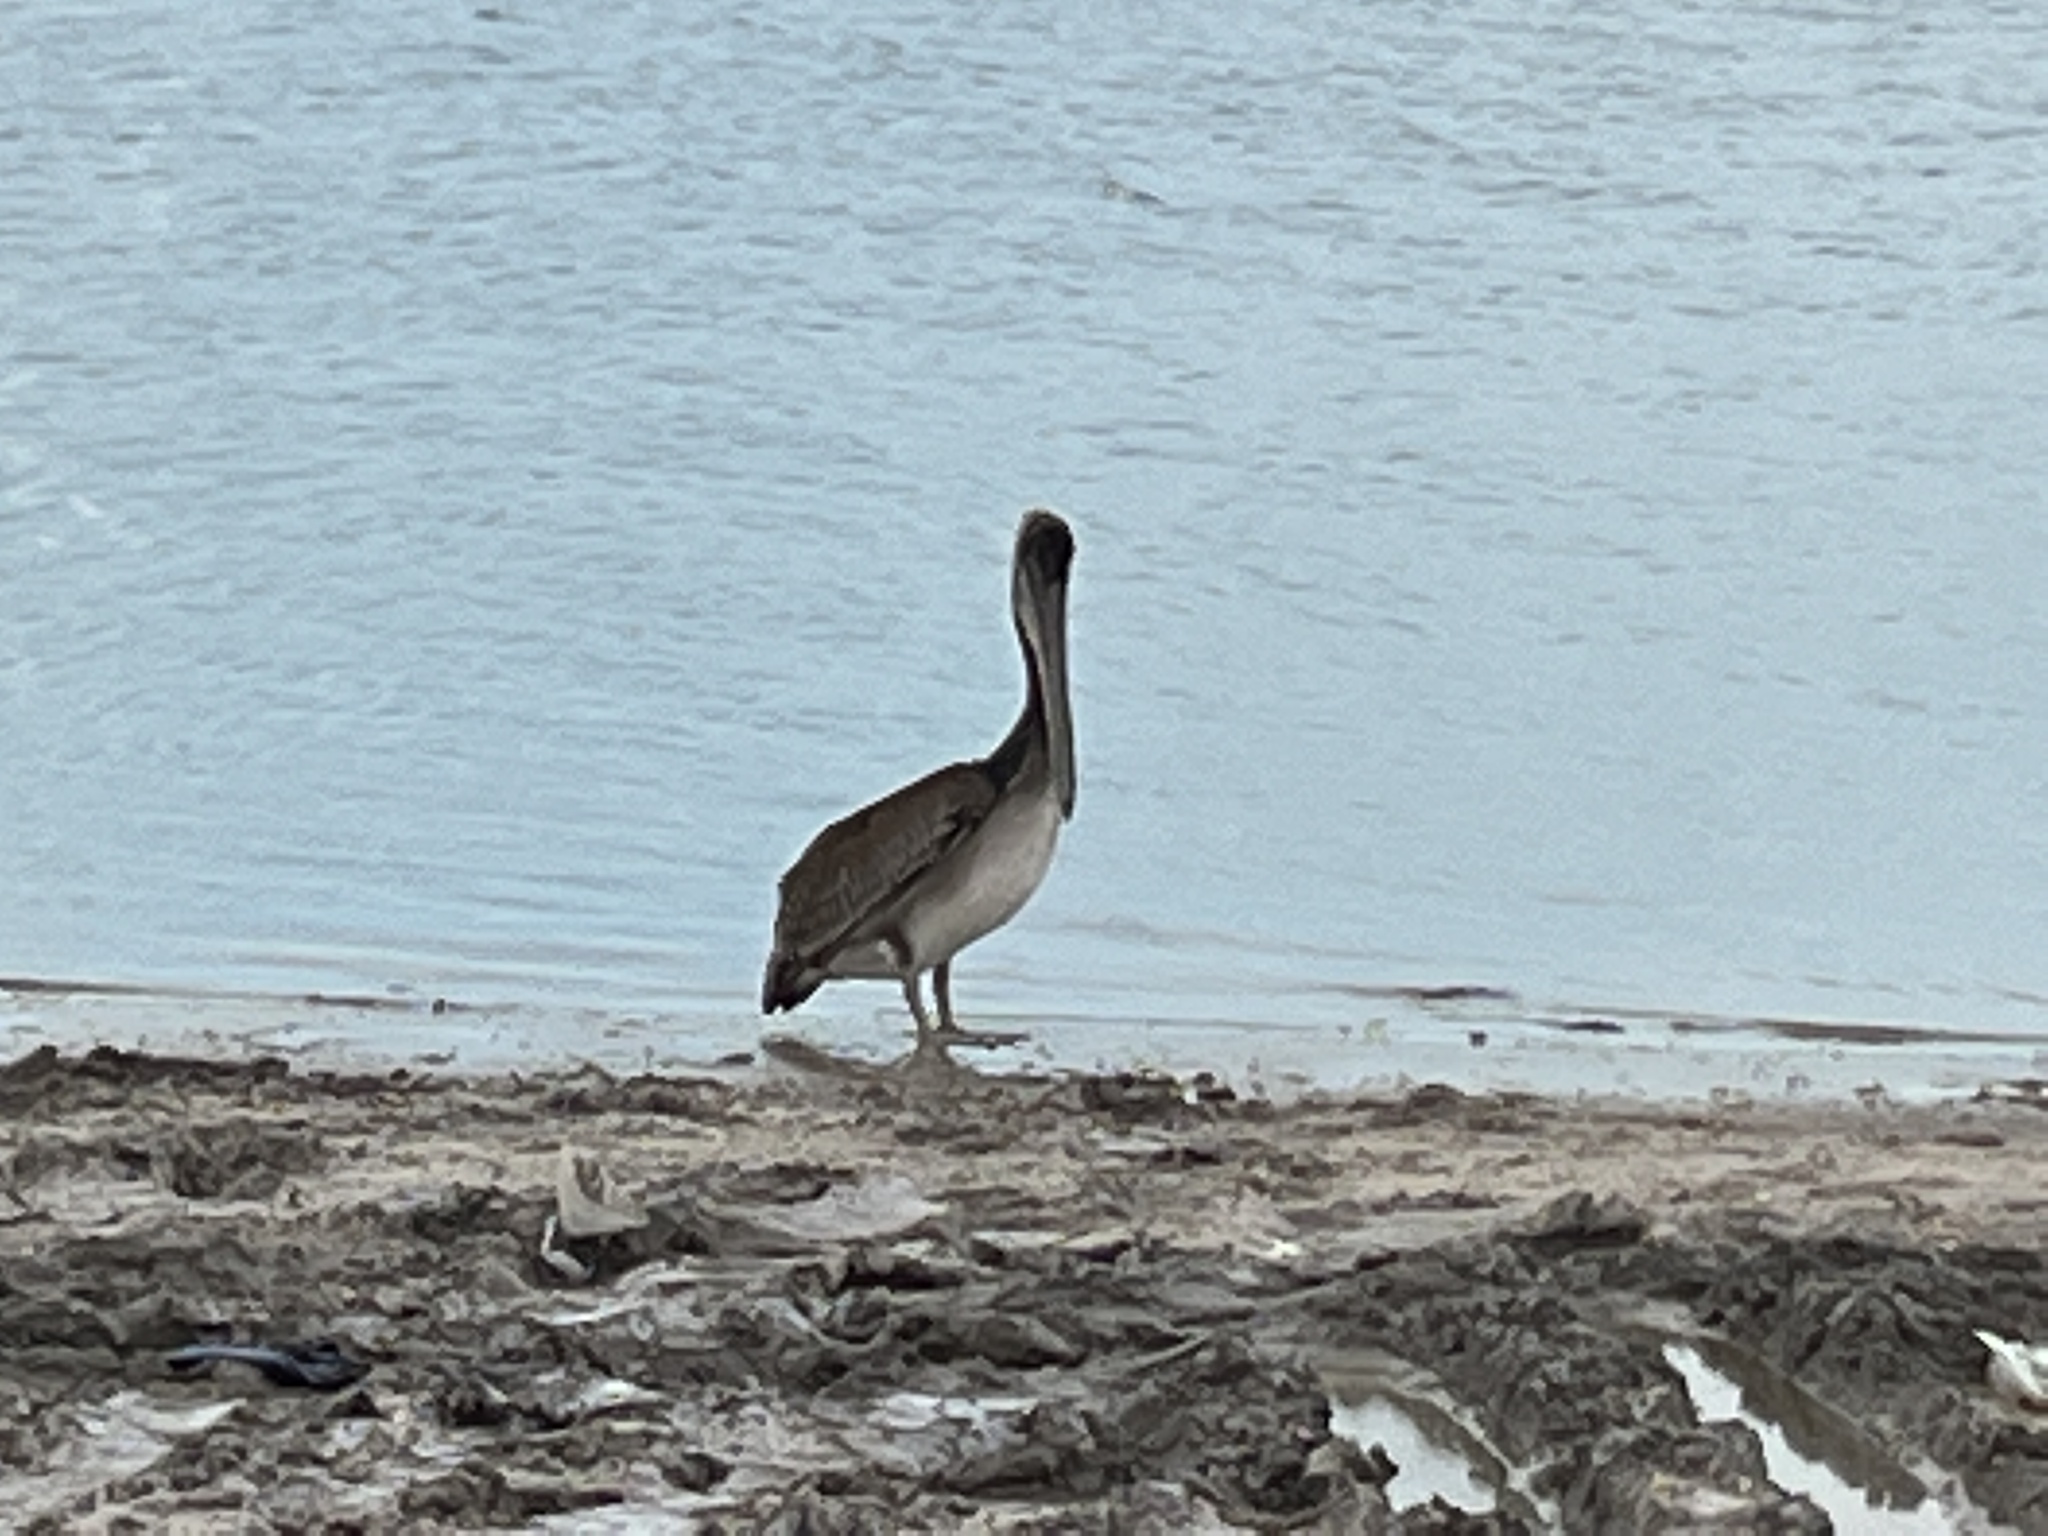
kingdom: Animalia
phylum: Chordata
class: Aves
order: Pelecaniformes
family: Pelecanidae
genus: Pelecanus
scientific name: Pelecanus occidentalis
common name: Brown pelican
